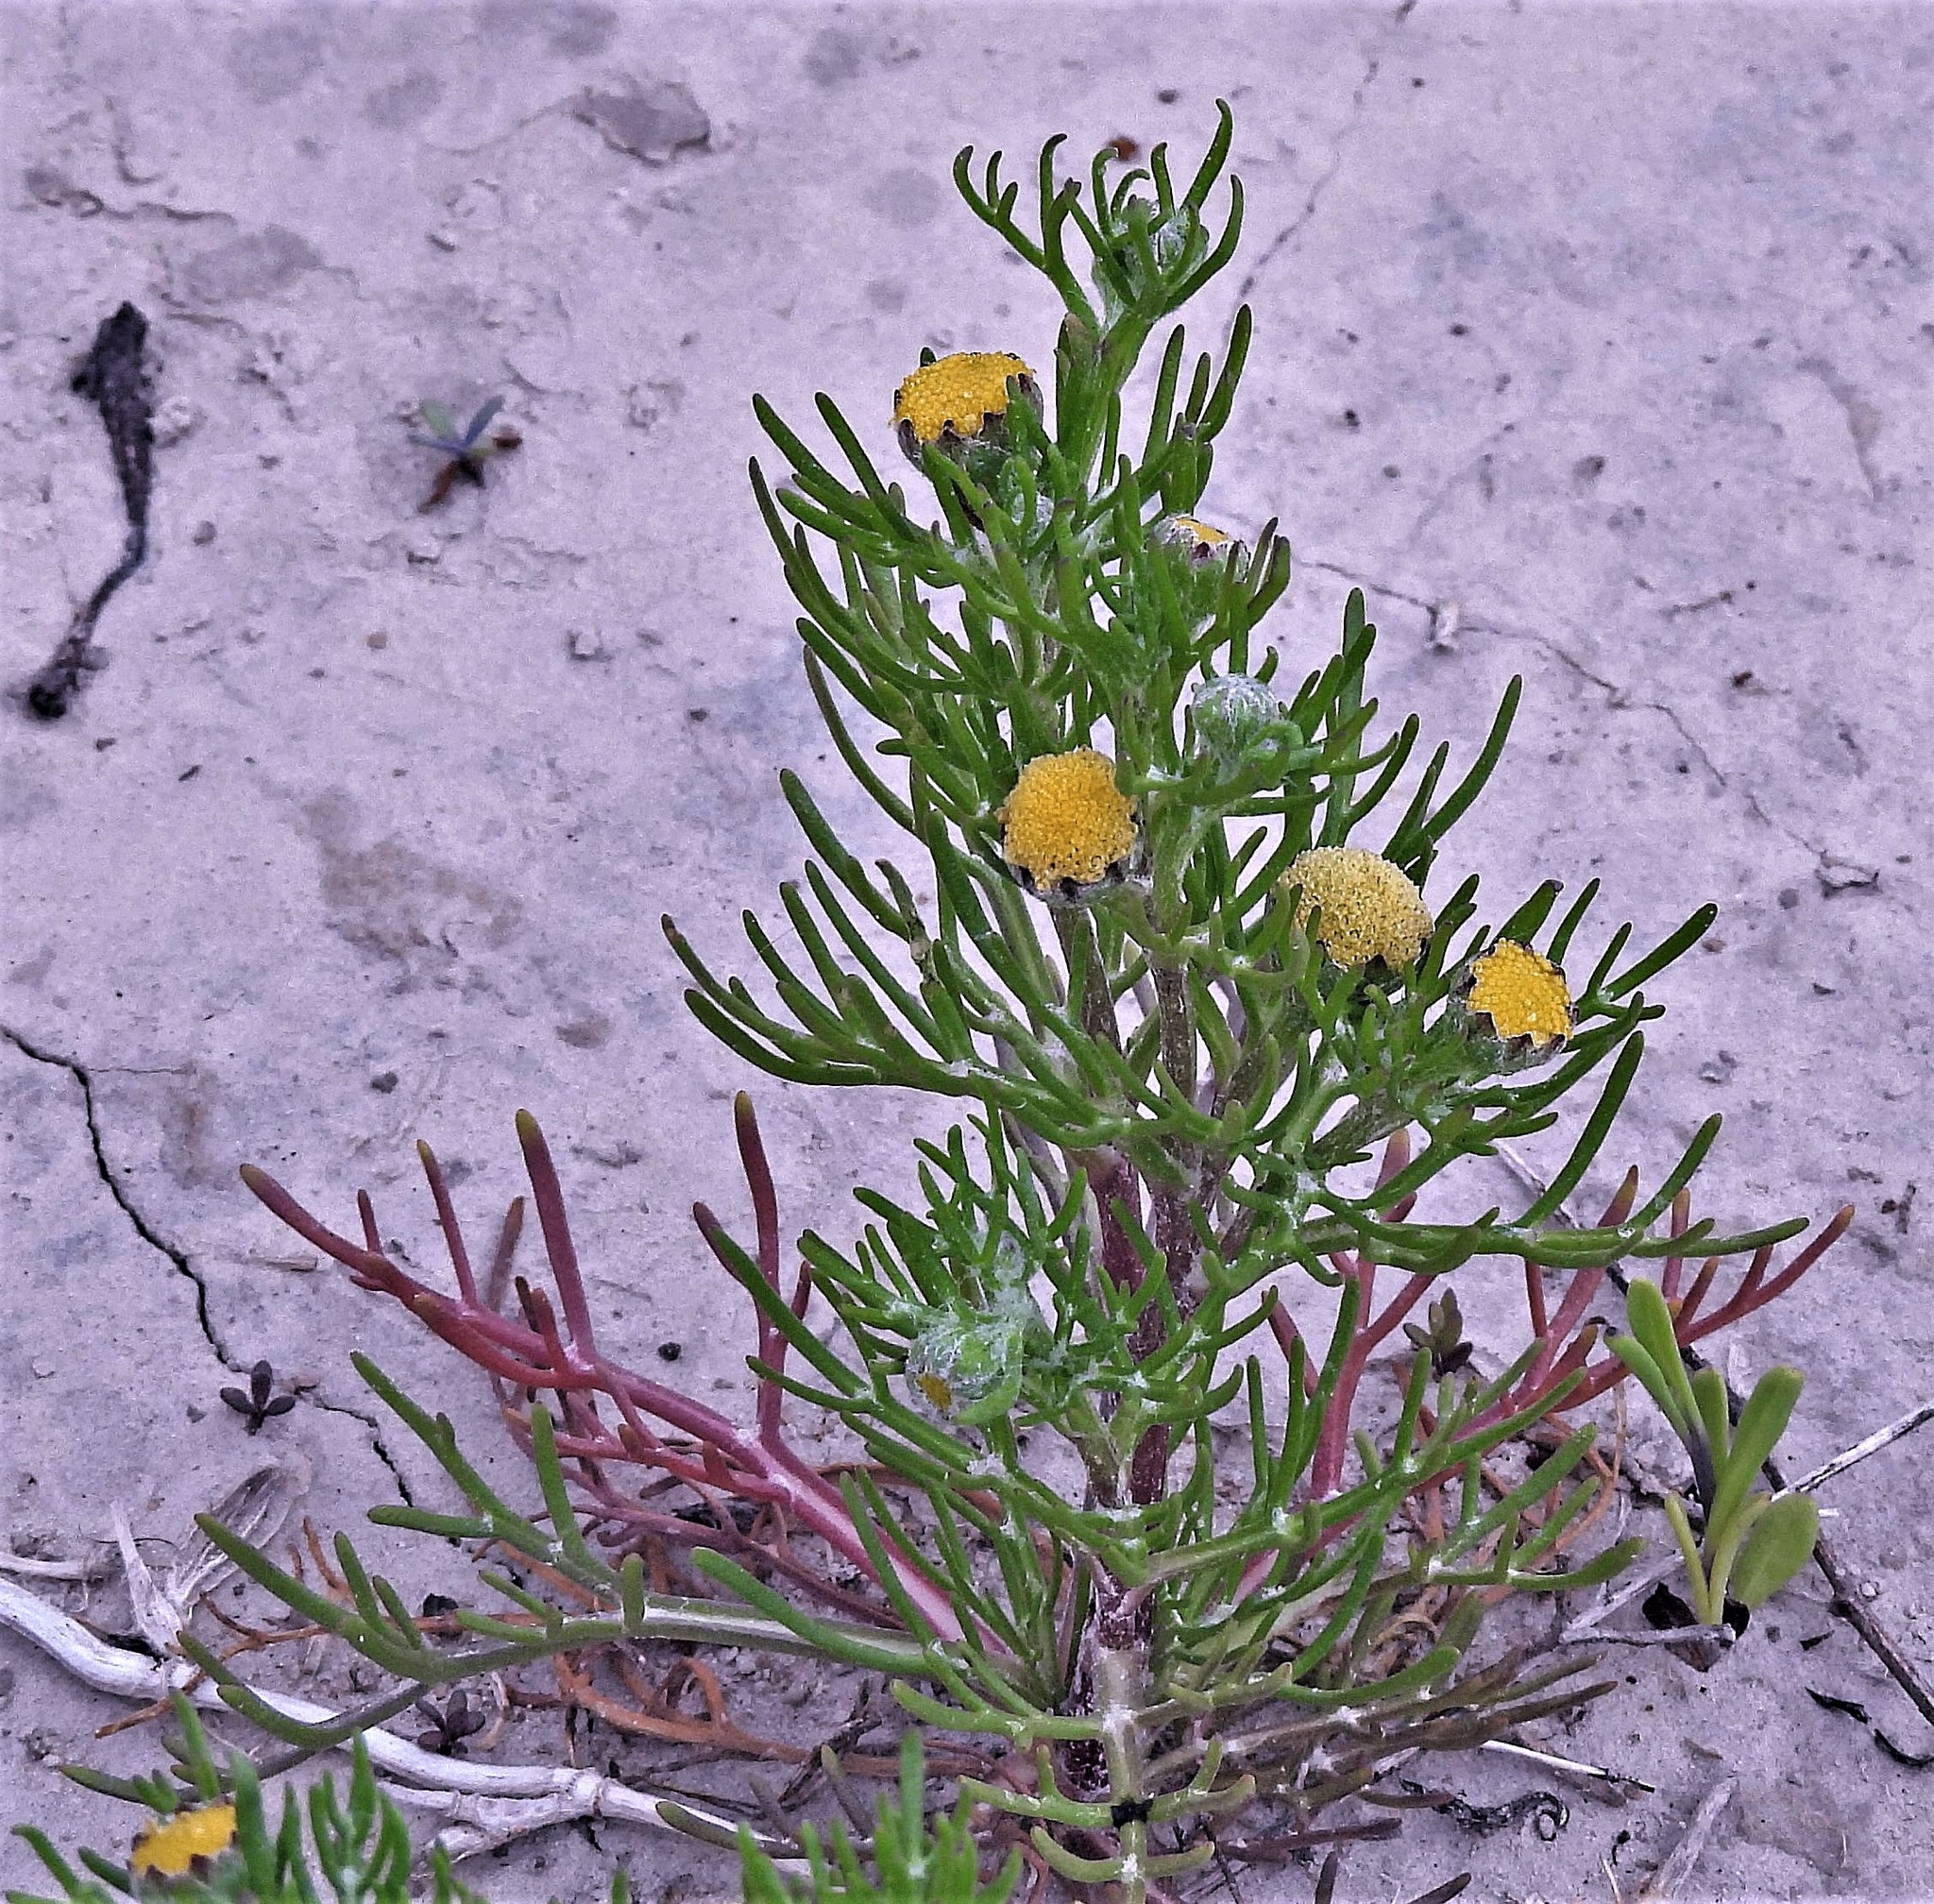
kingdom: Plantae
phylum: Tracheophyta
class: Magnoliopsida
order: Asterales
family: Asteraceae
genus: Hymenoxys
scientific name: Hymenoxys anthemoides
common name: South american rubberweed
